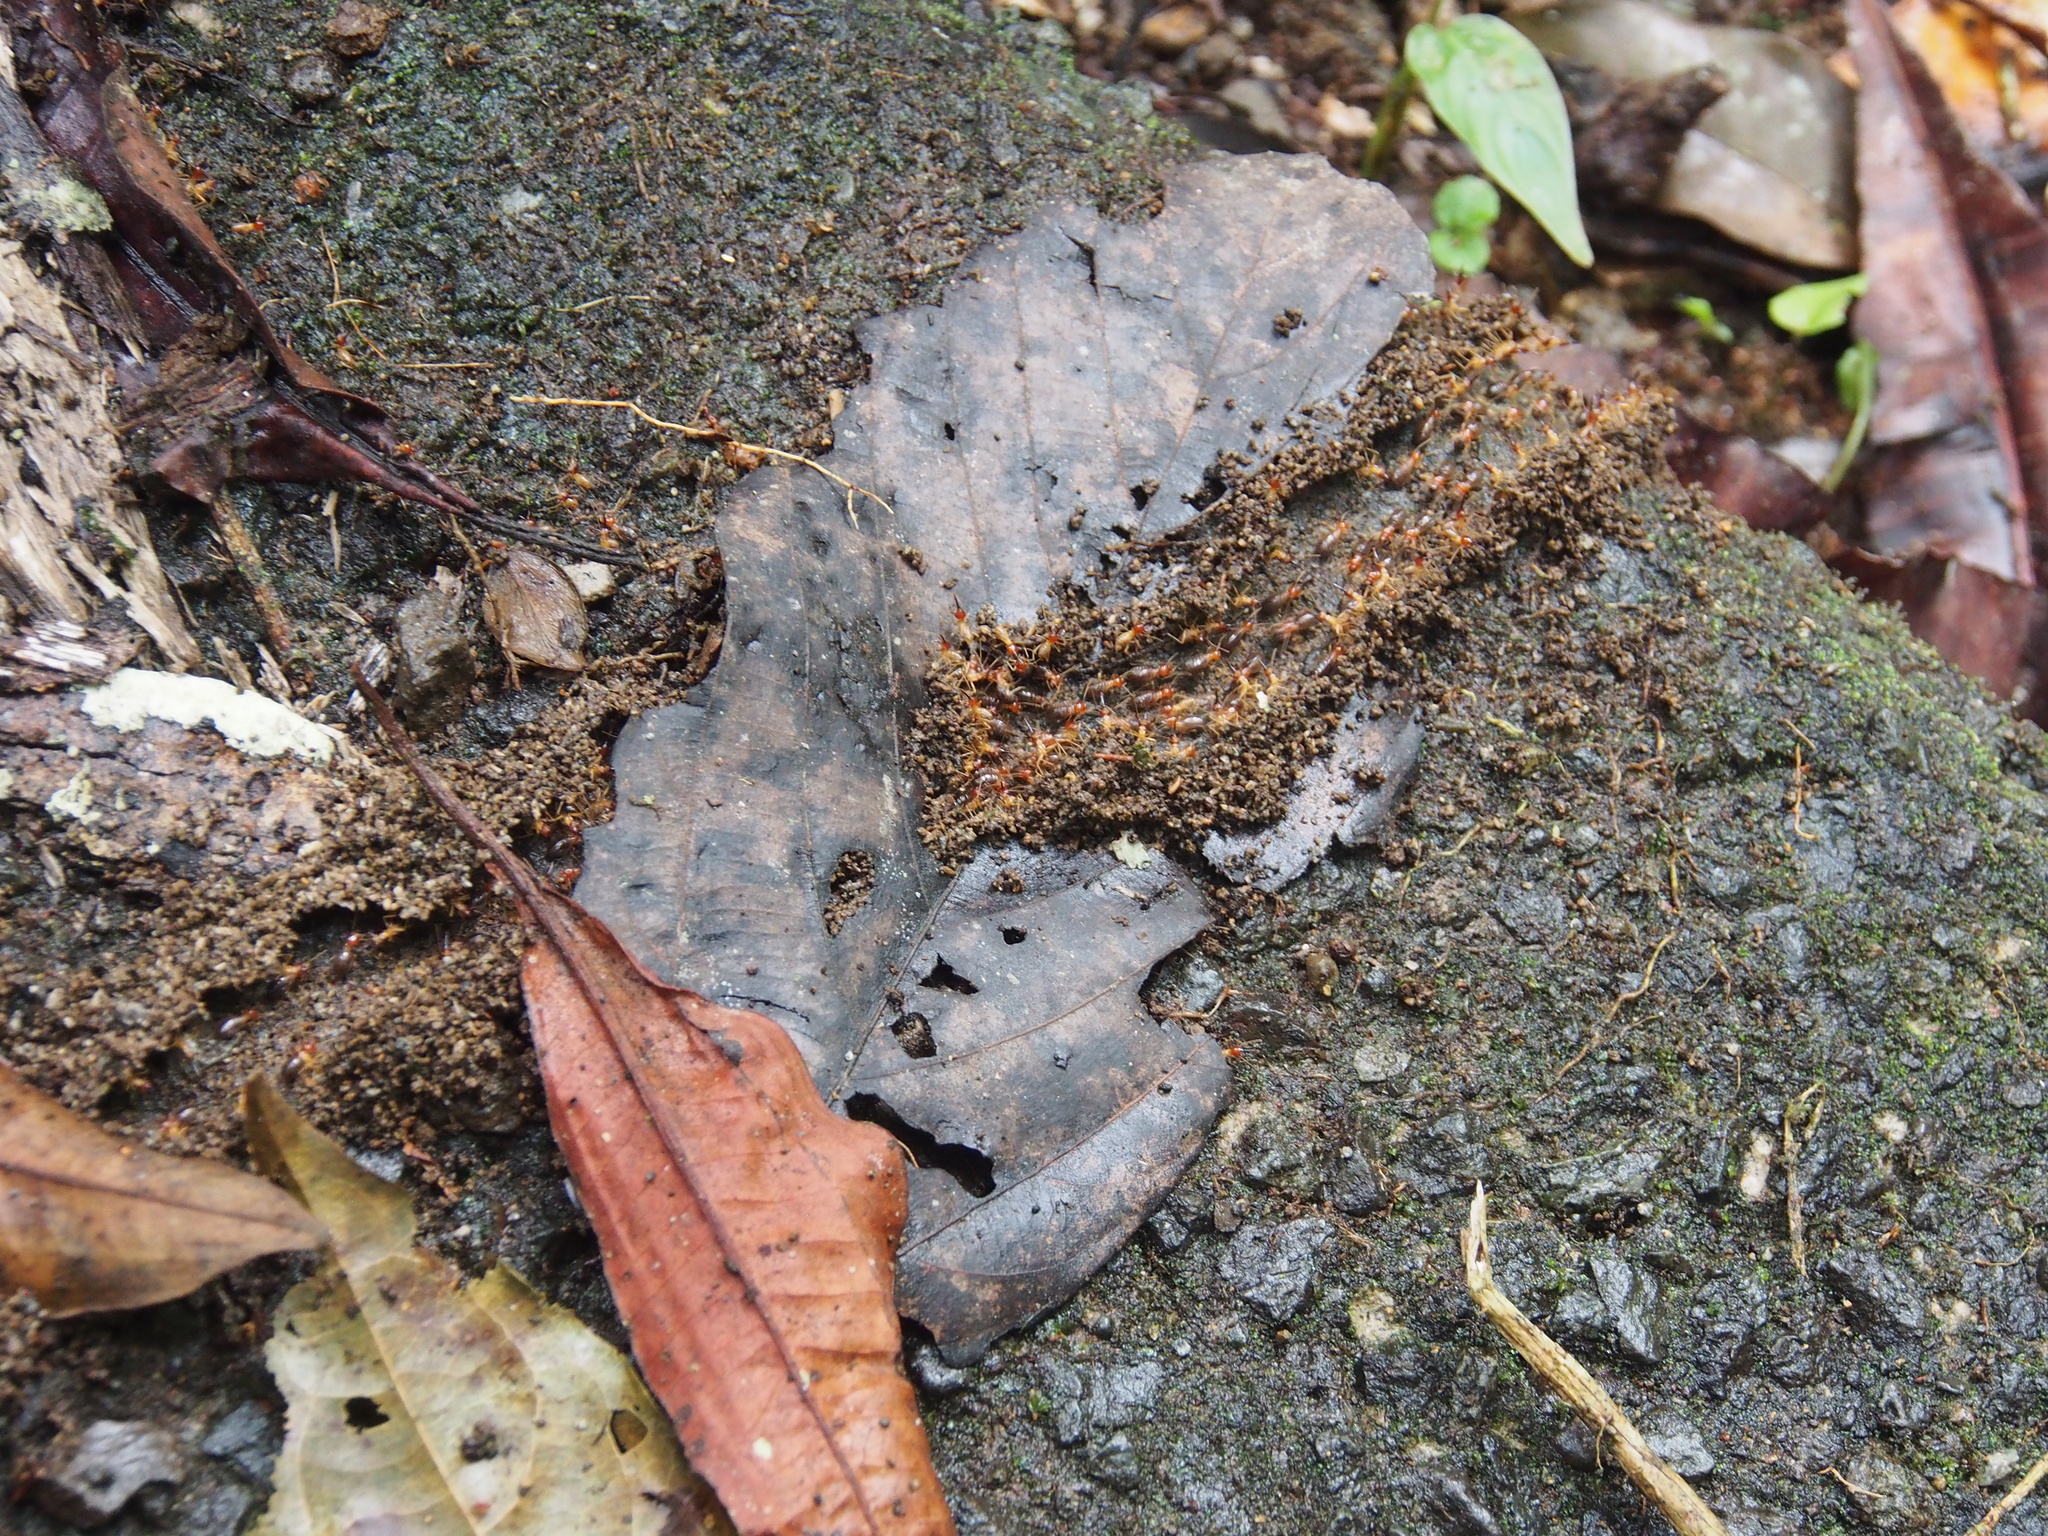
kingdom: Animalia
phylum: Arthropoda
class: Insecta
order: Blattodea
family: Termitidae
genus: Rhynchotermes
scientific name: Rhynchotermes perarmatus
